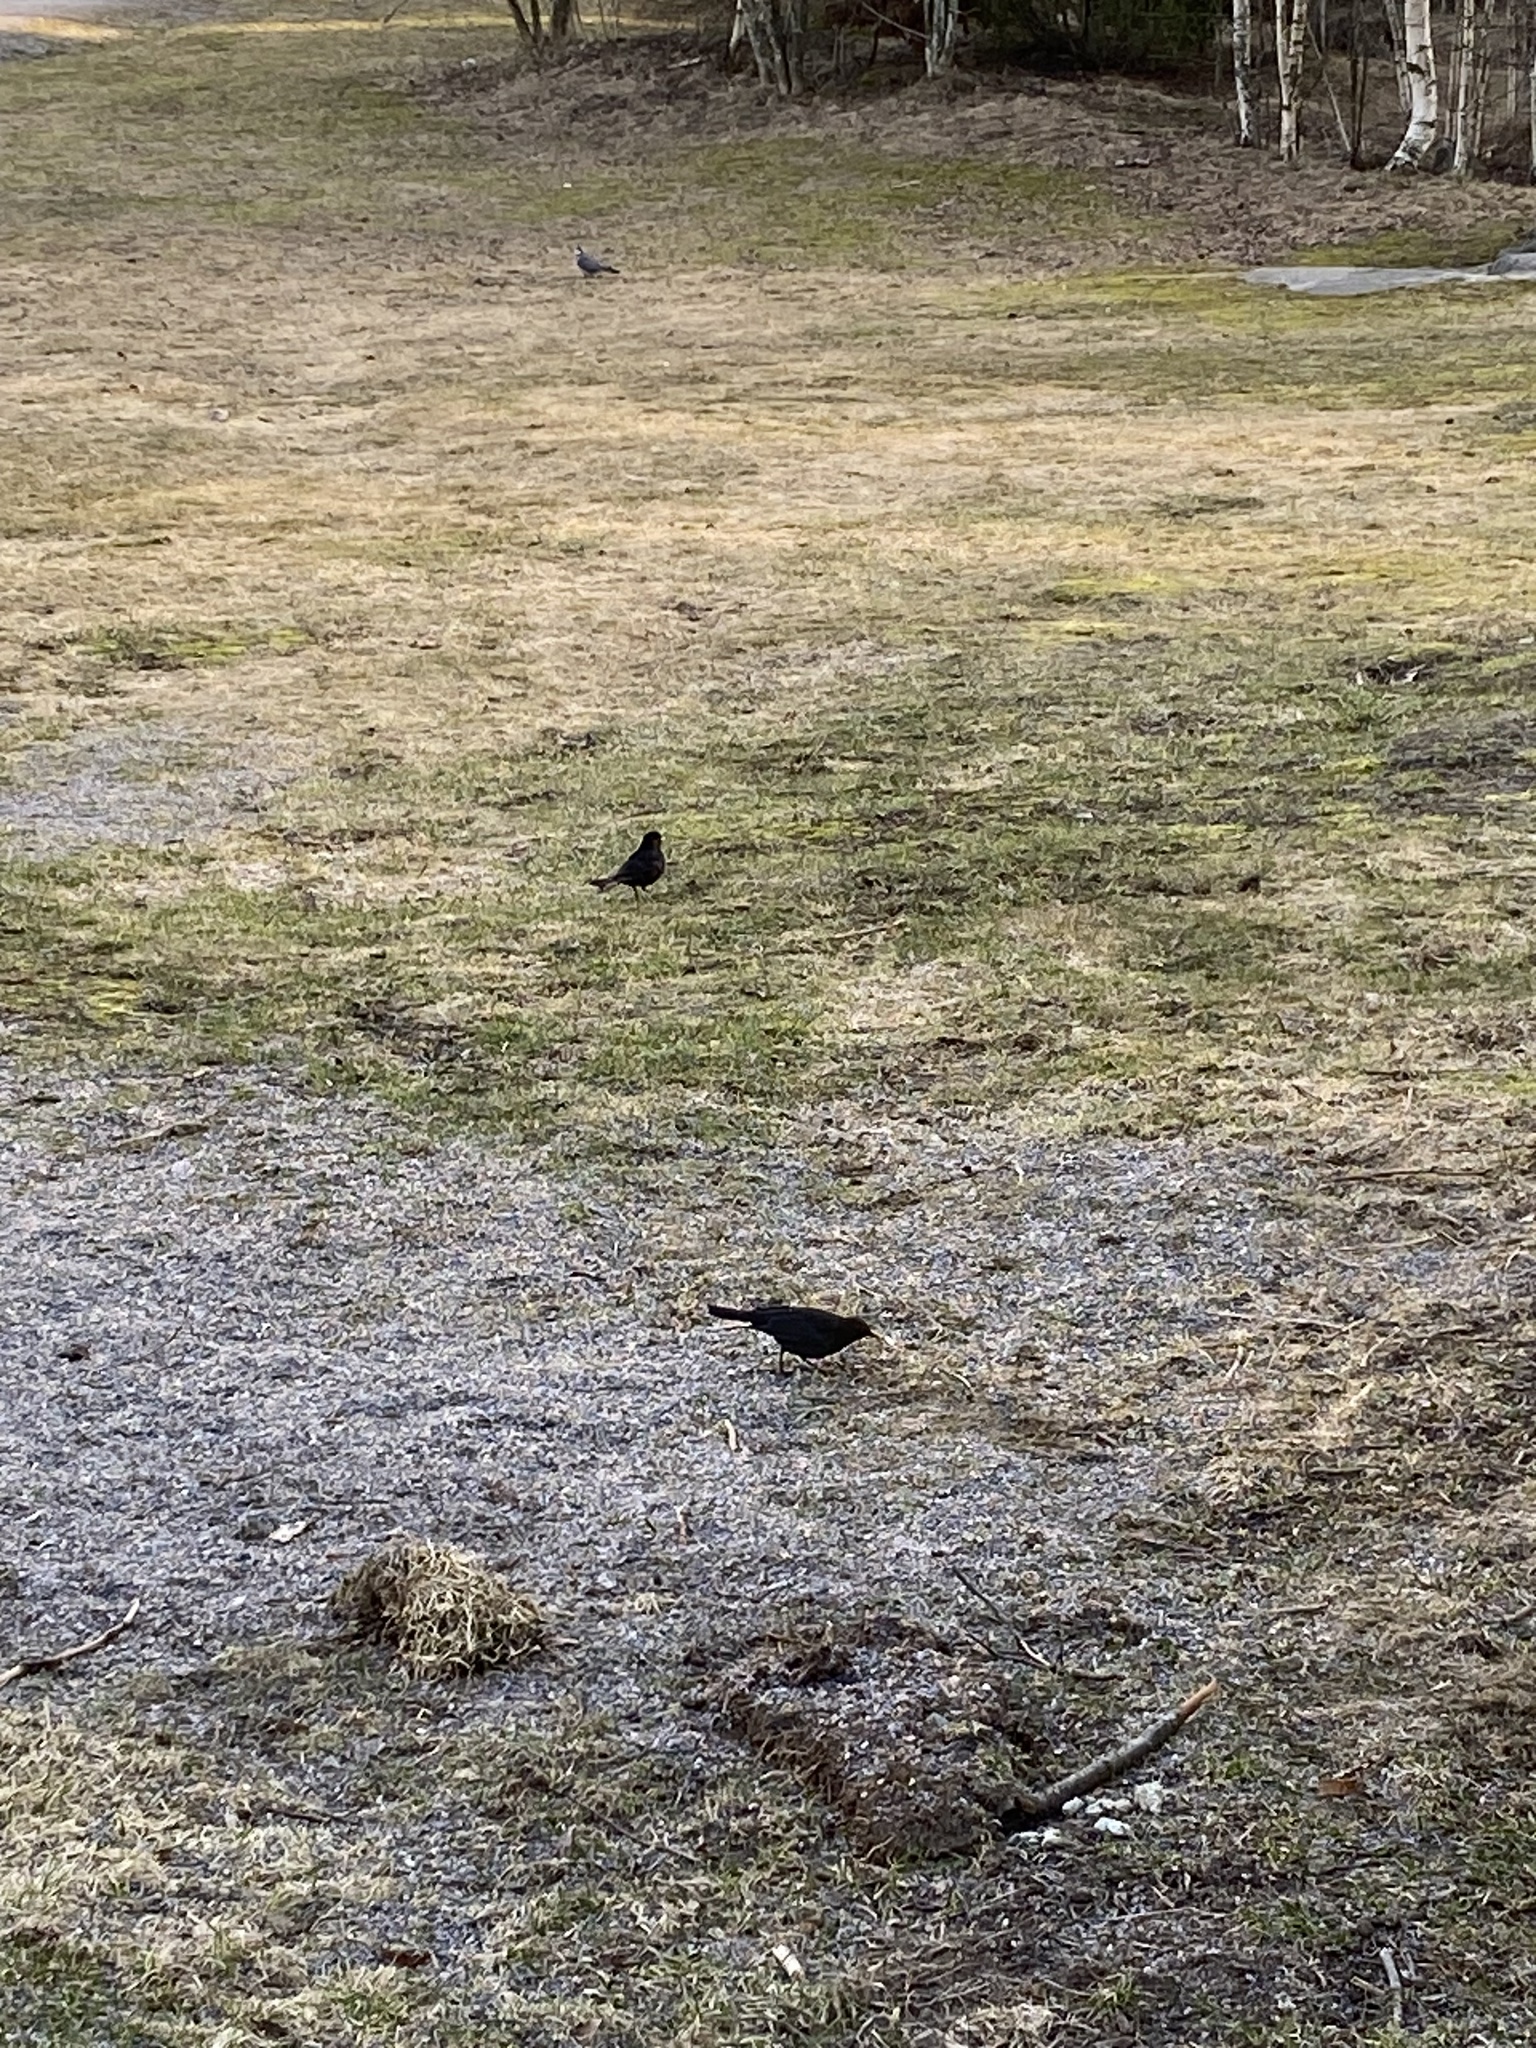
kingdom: Animalia
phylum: Chordata
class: Aves
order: Passeriformes
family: Turdidae
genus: Turdus
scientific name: Turdus merula
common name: Common blackbird
